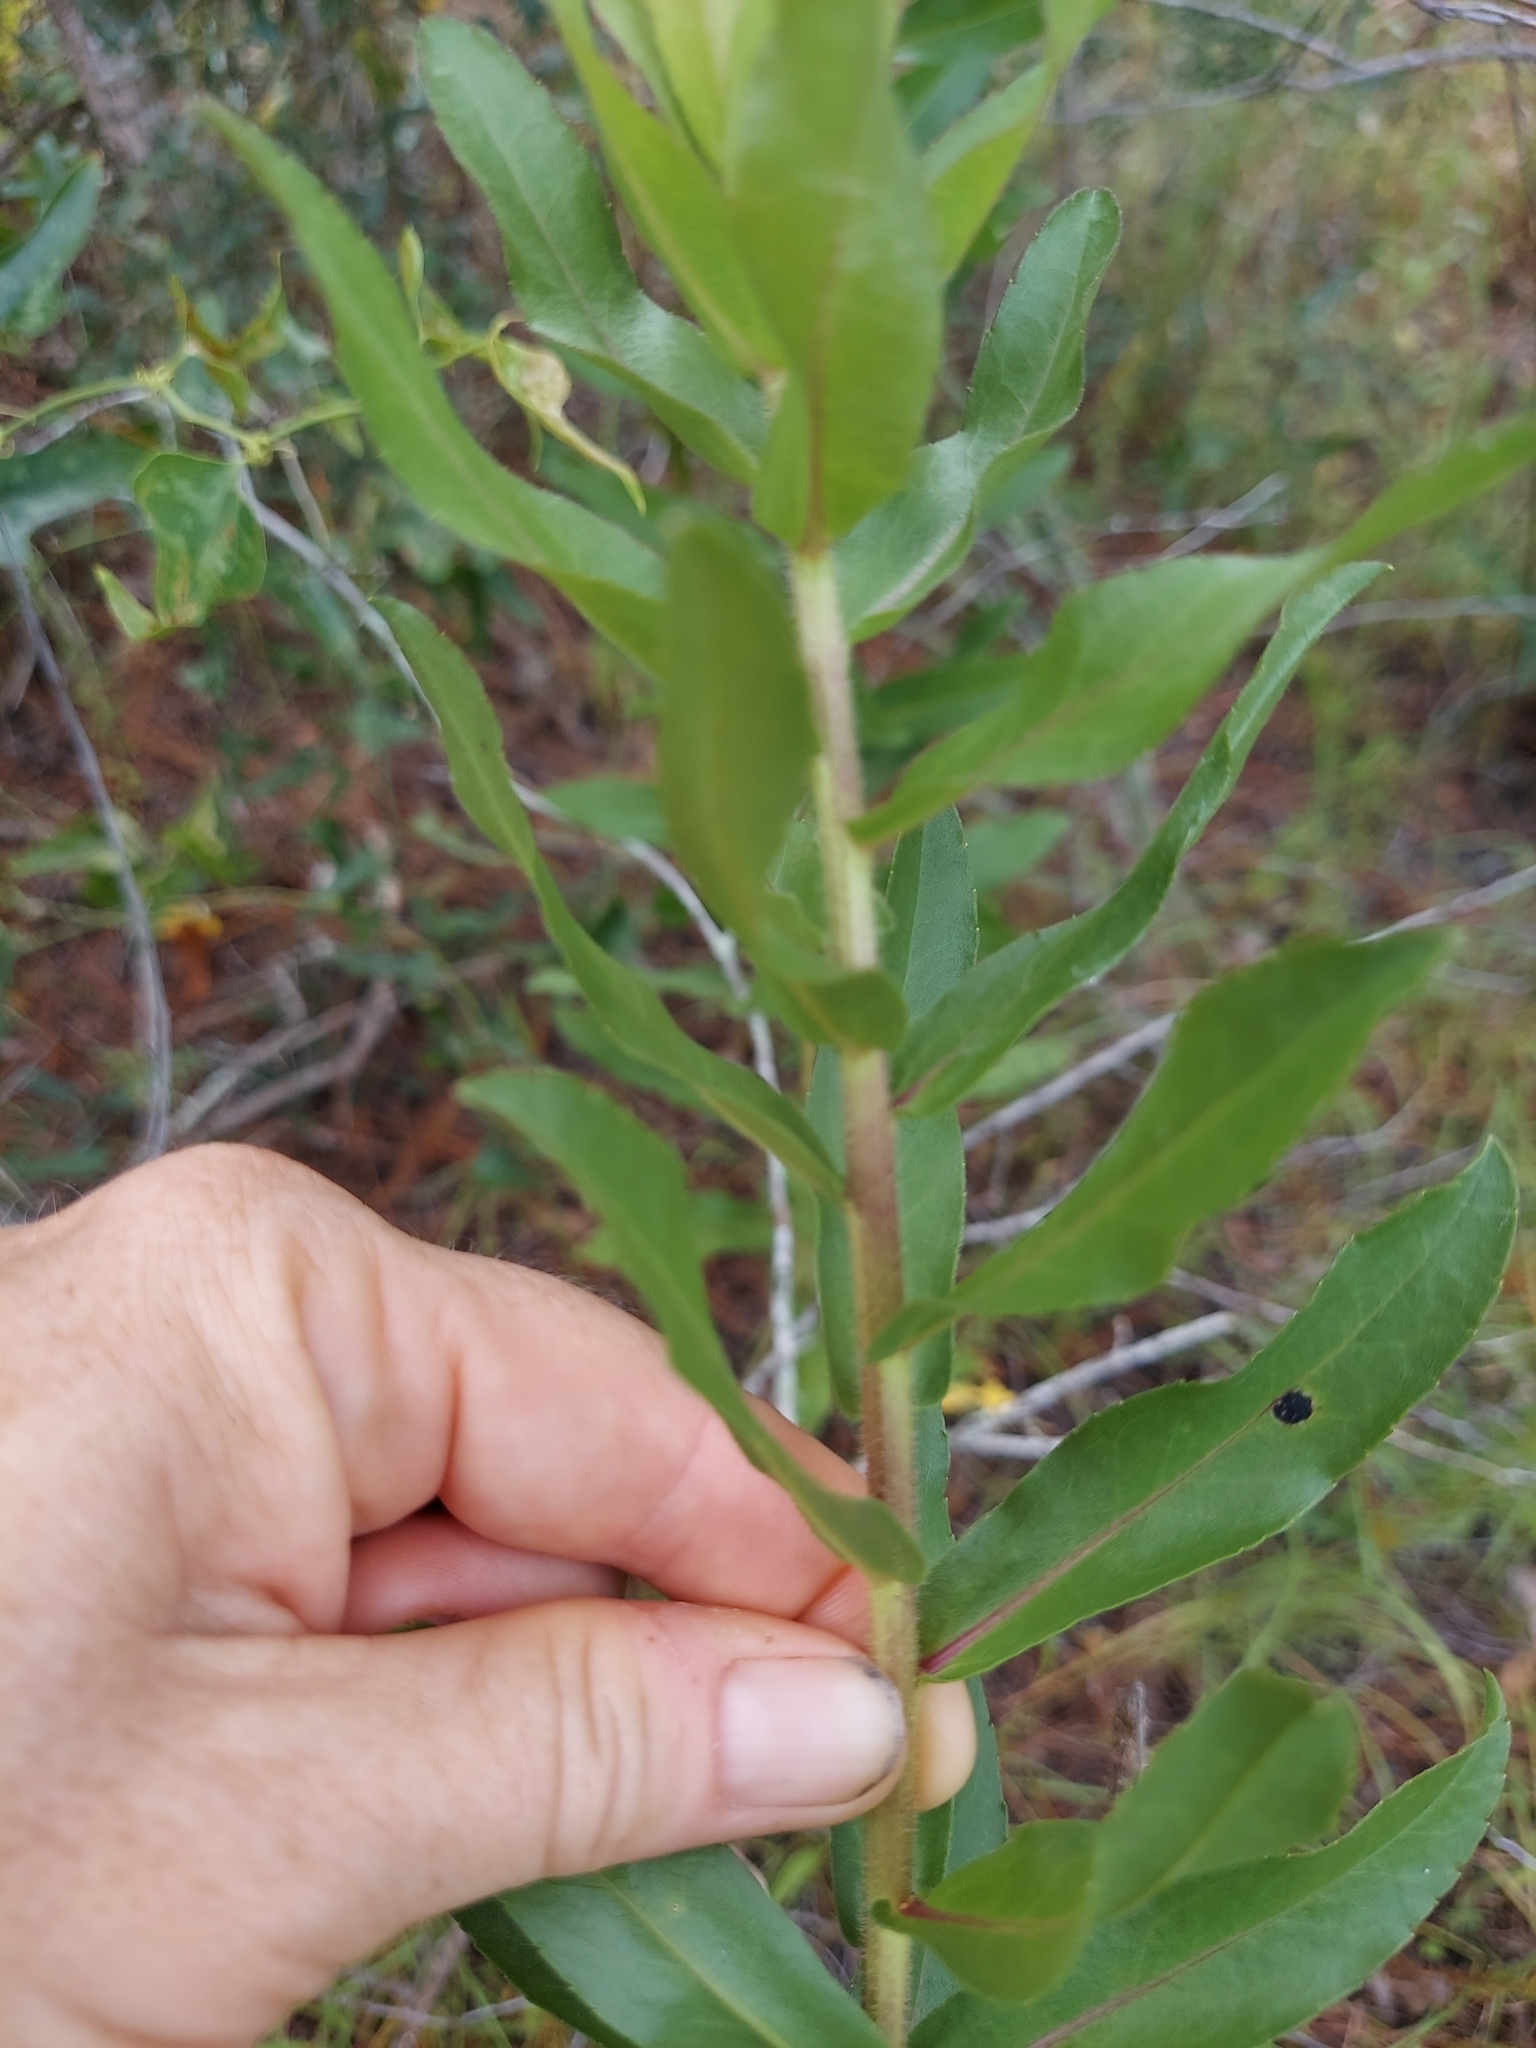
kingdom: Plantae
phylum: Tracheophyta
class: Magnoliopsida
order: Asterales
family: Asteraceae
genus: Solidago
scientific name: Solidago fistulosa
